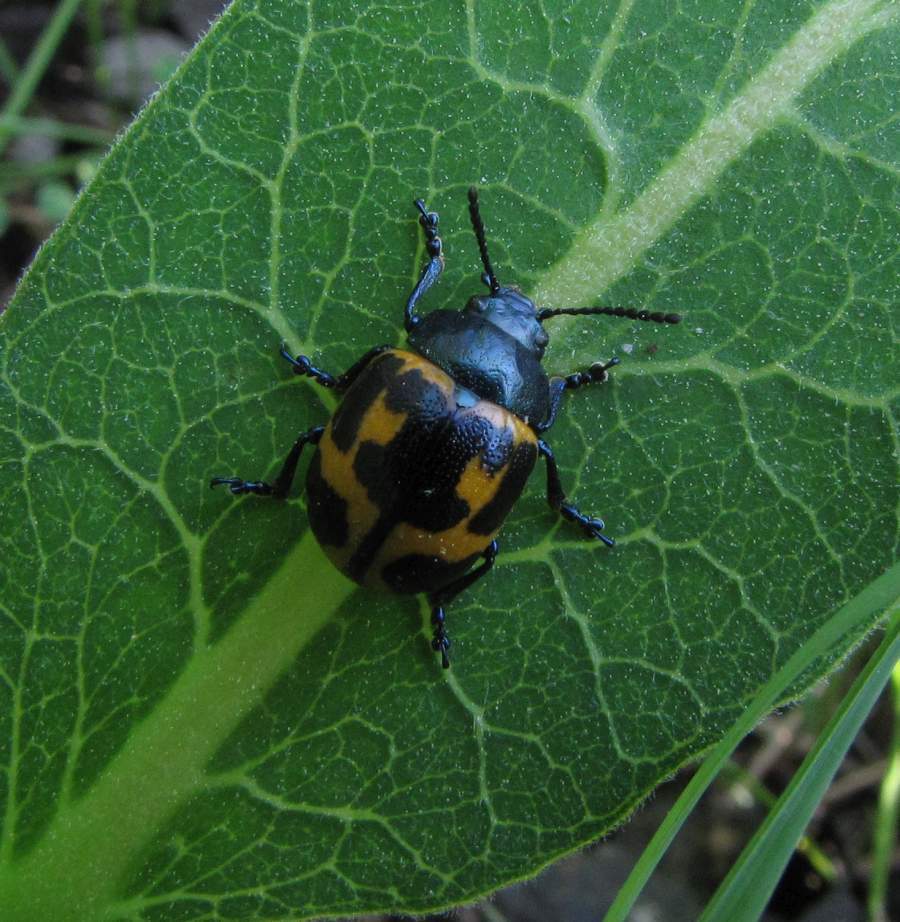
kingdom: Animalia
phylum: Arthropoda
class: Insecta
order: Coleoptera
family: Chrysomelidae
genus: Labidomera
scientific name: Labidomera clivicollis
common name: Swamp milkweed leaf beetle
